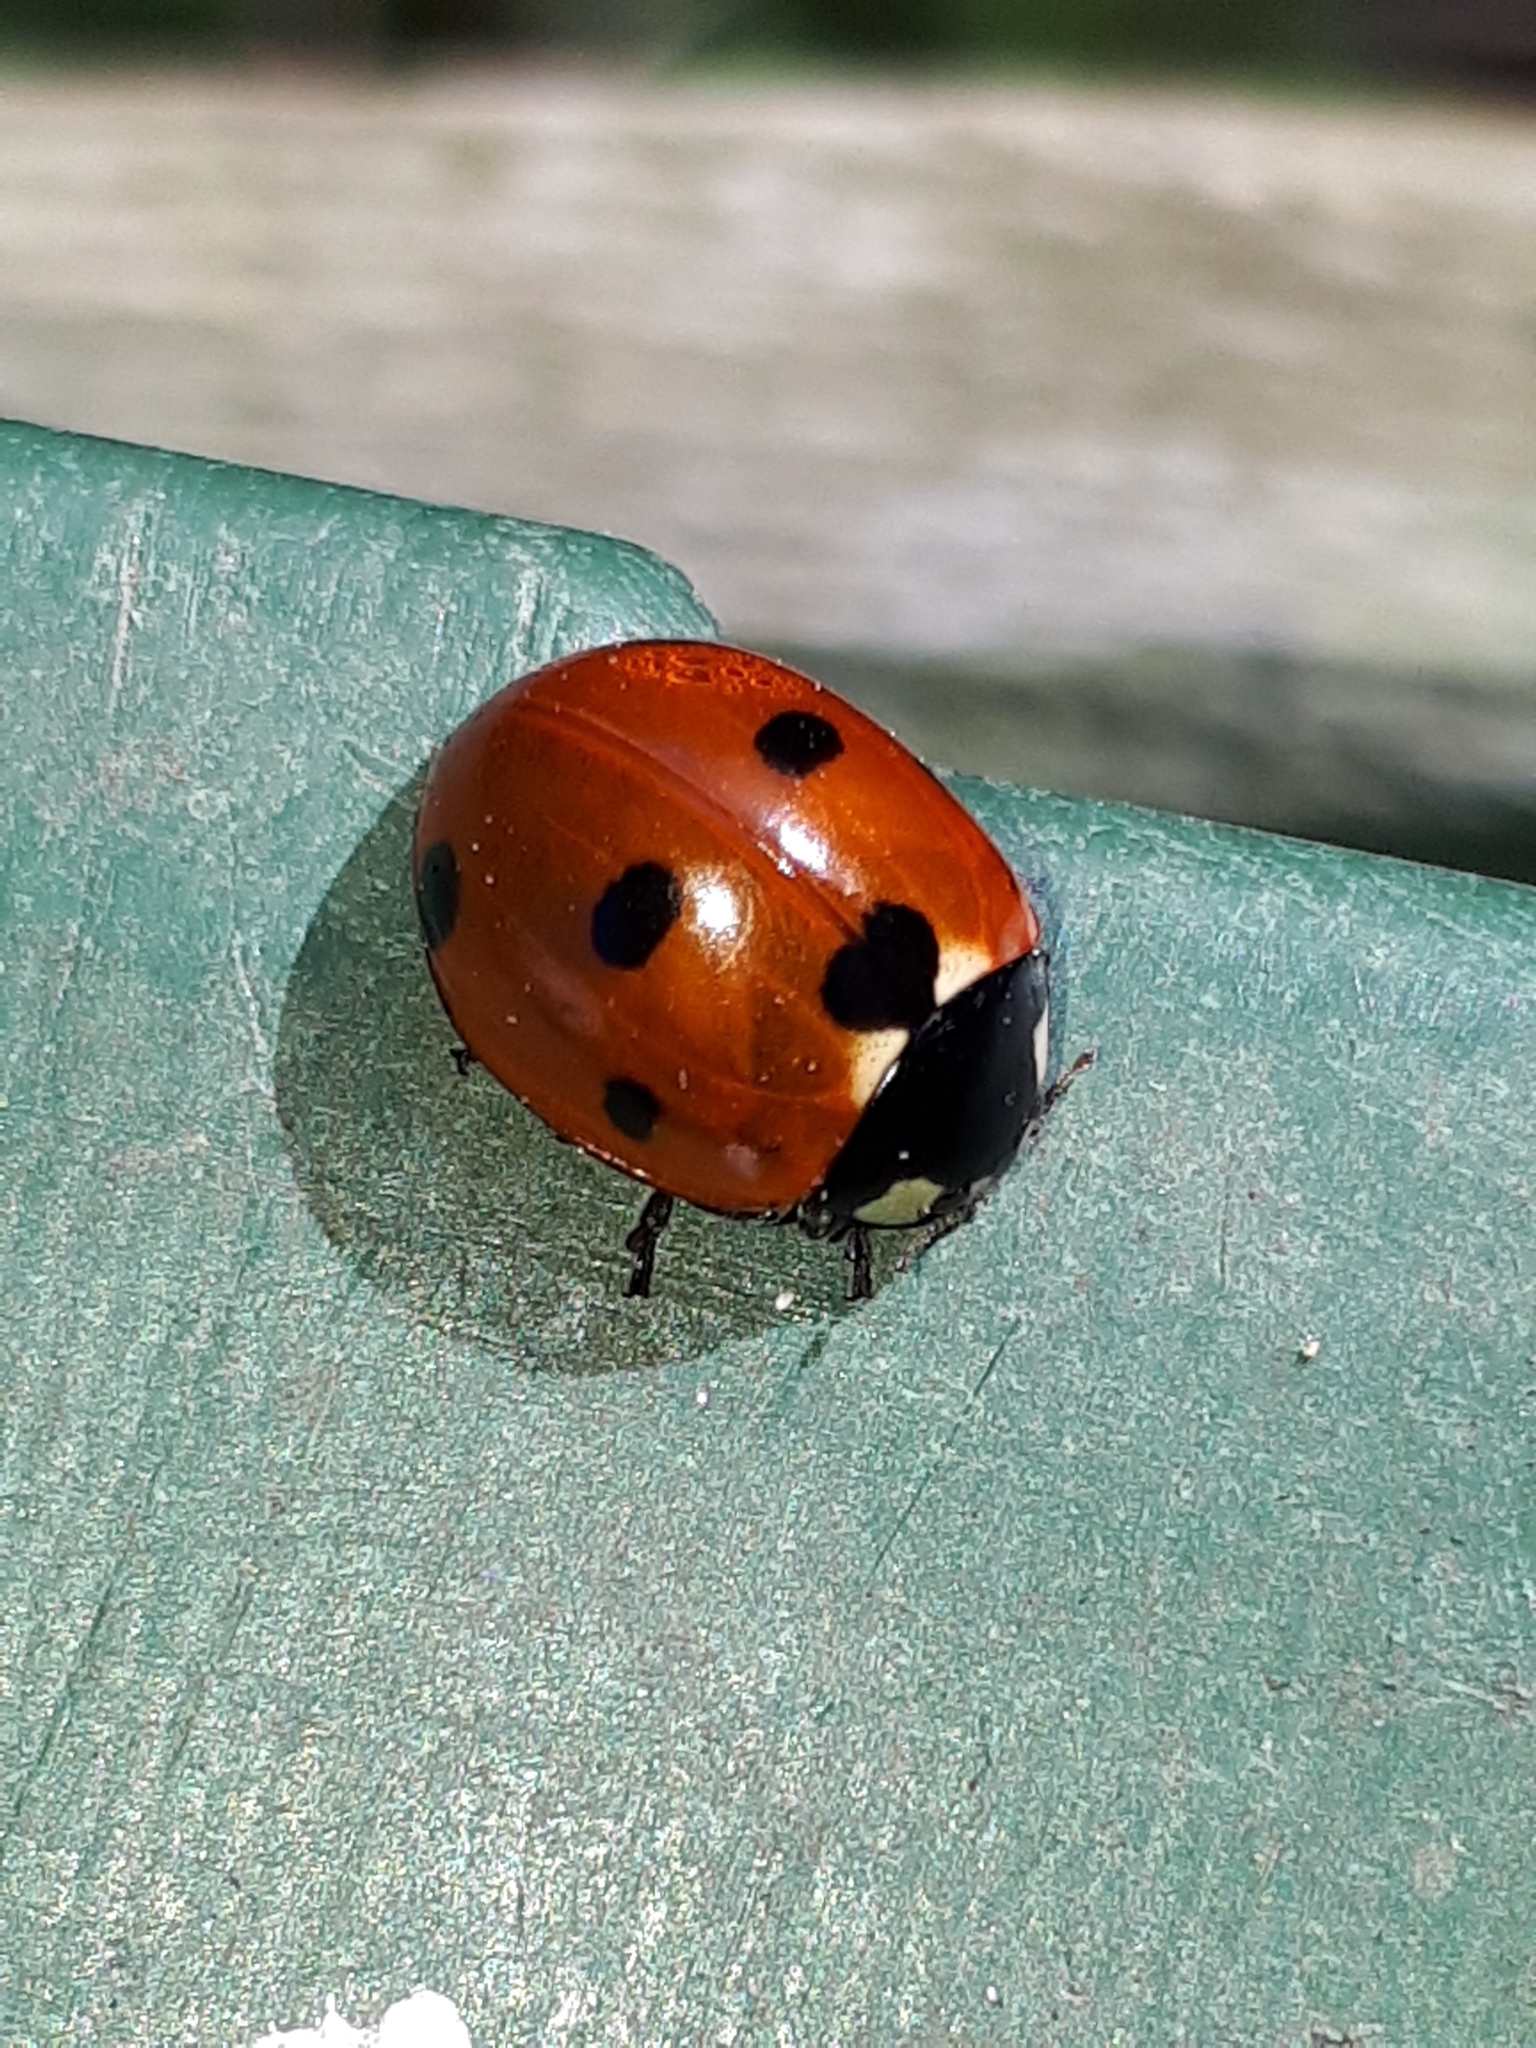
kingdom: Animalia
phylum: Arthropoda
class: Insecta
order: Coleoptera
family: Coccinellidae
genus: Coccinella
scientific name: Coccinella septempunctata
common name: Sevenspotted lady beetle
